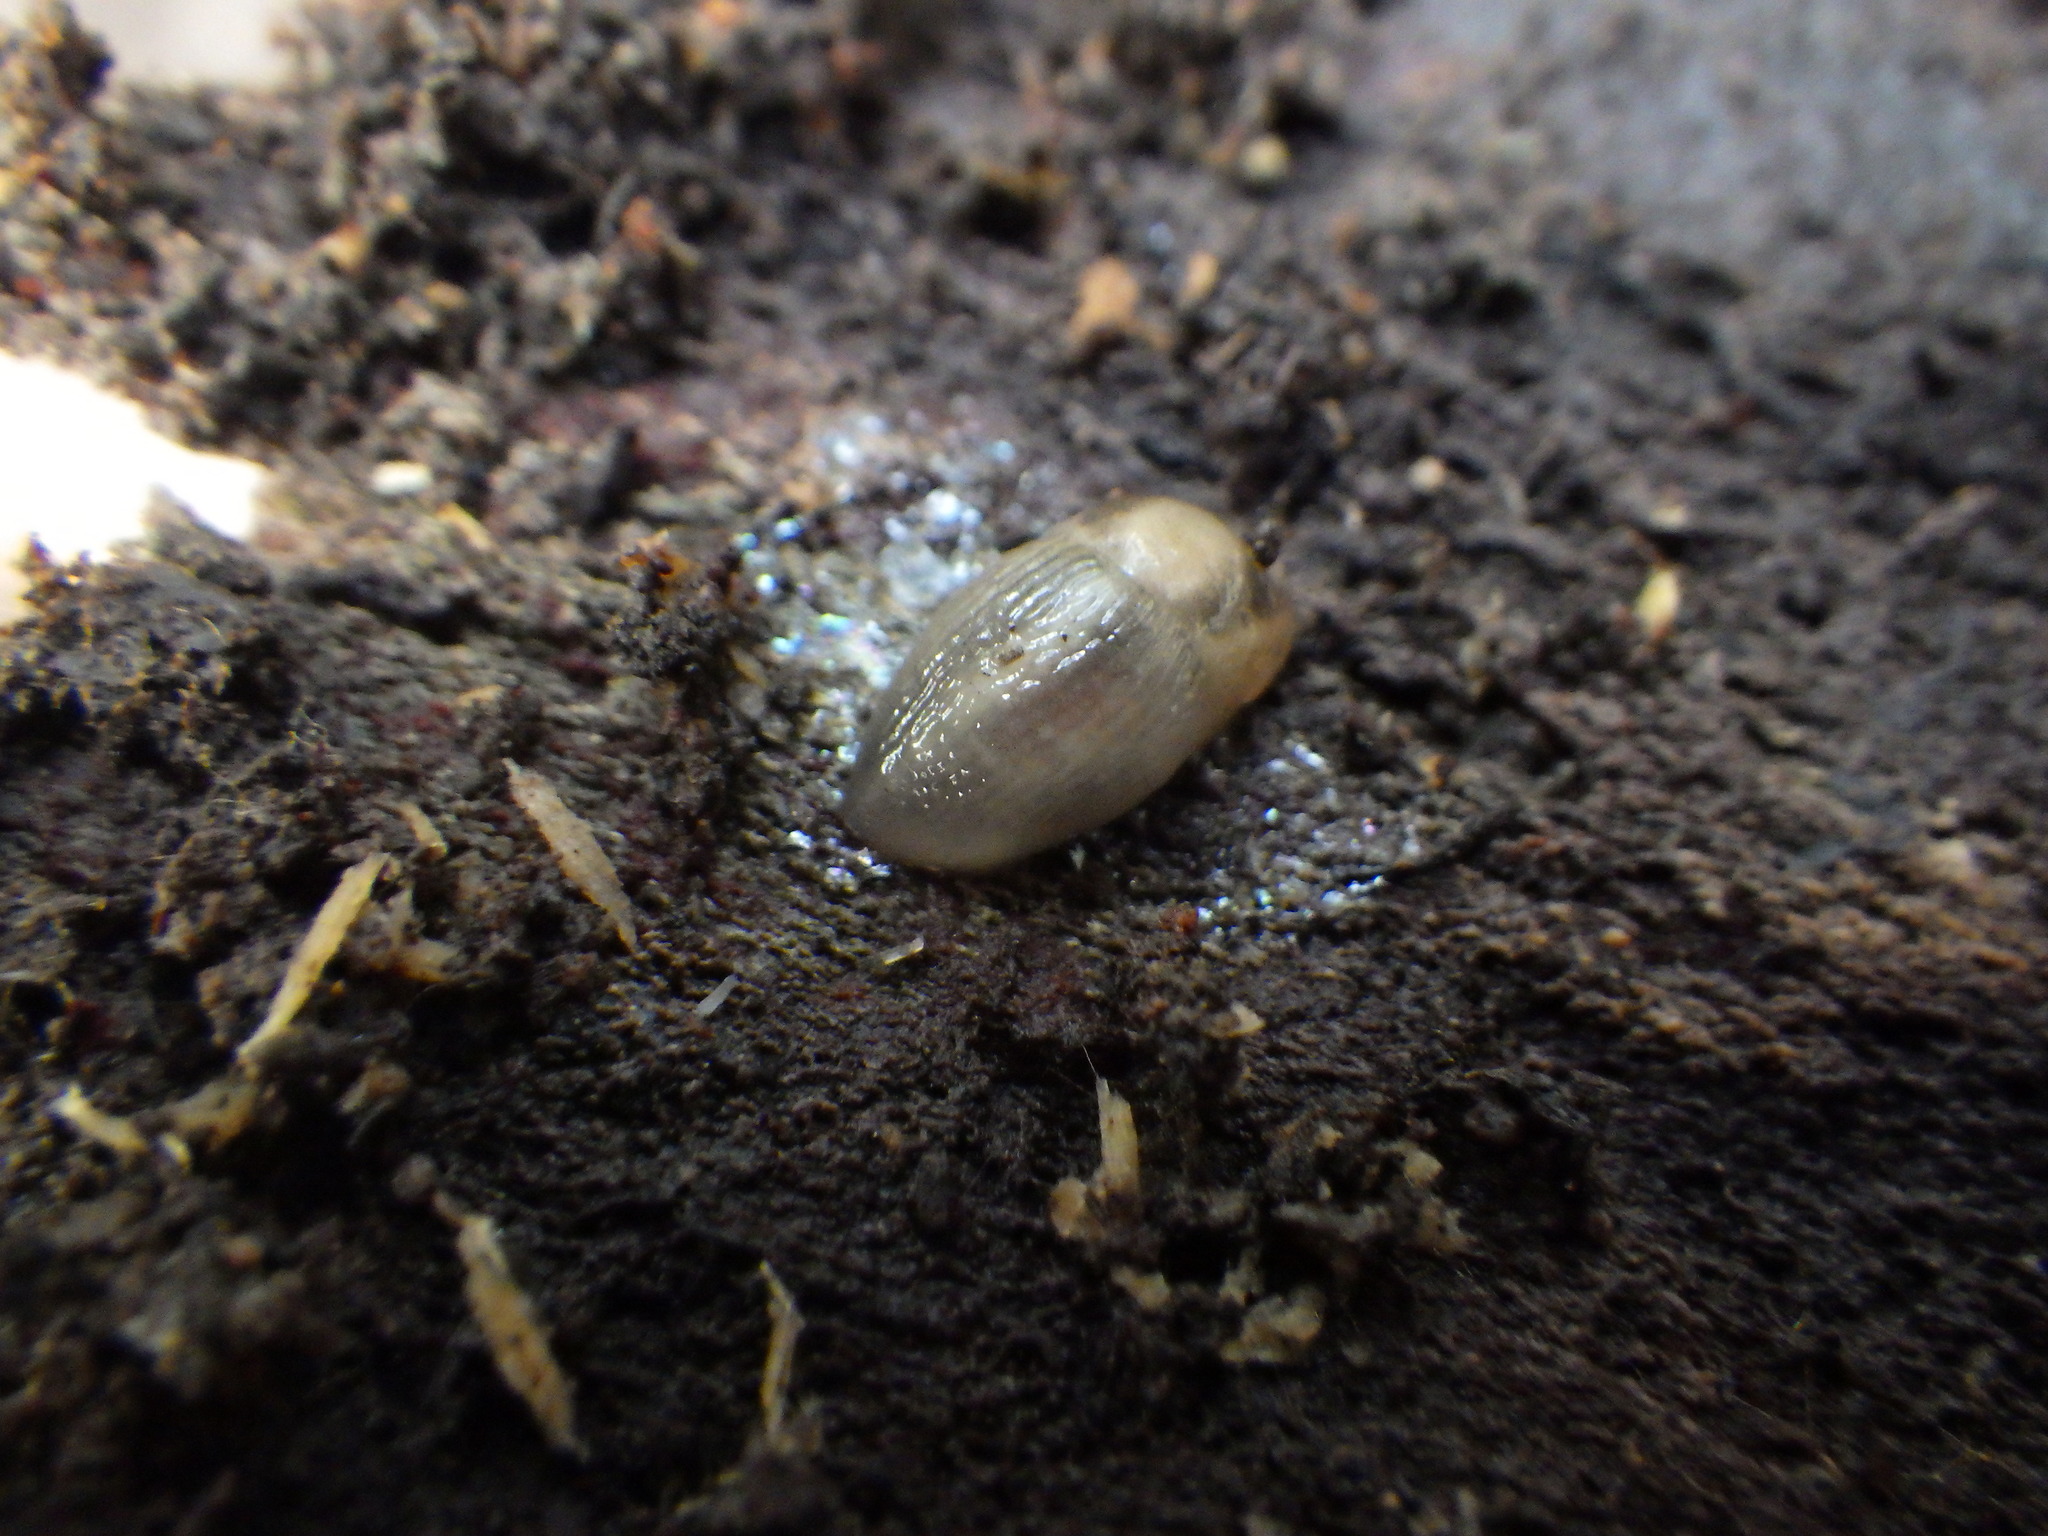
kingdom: Animalia
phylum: Mollusca
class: Gastropoda
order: Stylommatophora
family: Limacidae
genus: Lehmannia
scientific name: Lehmannia marginata
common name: Tree slug
